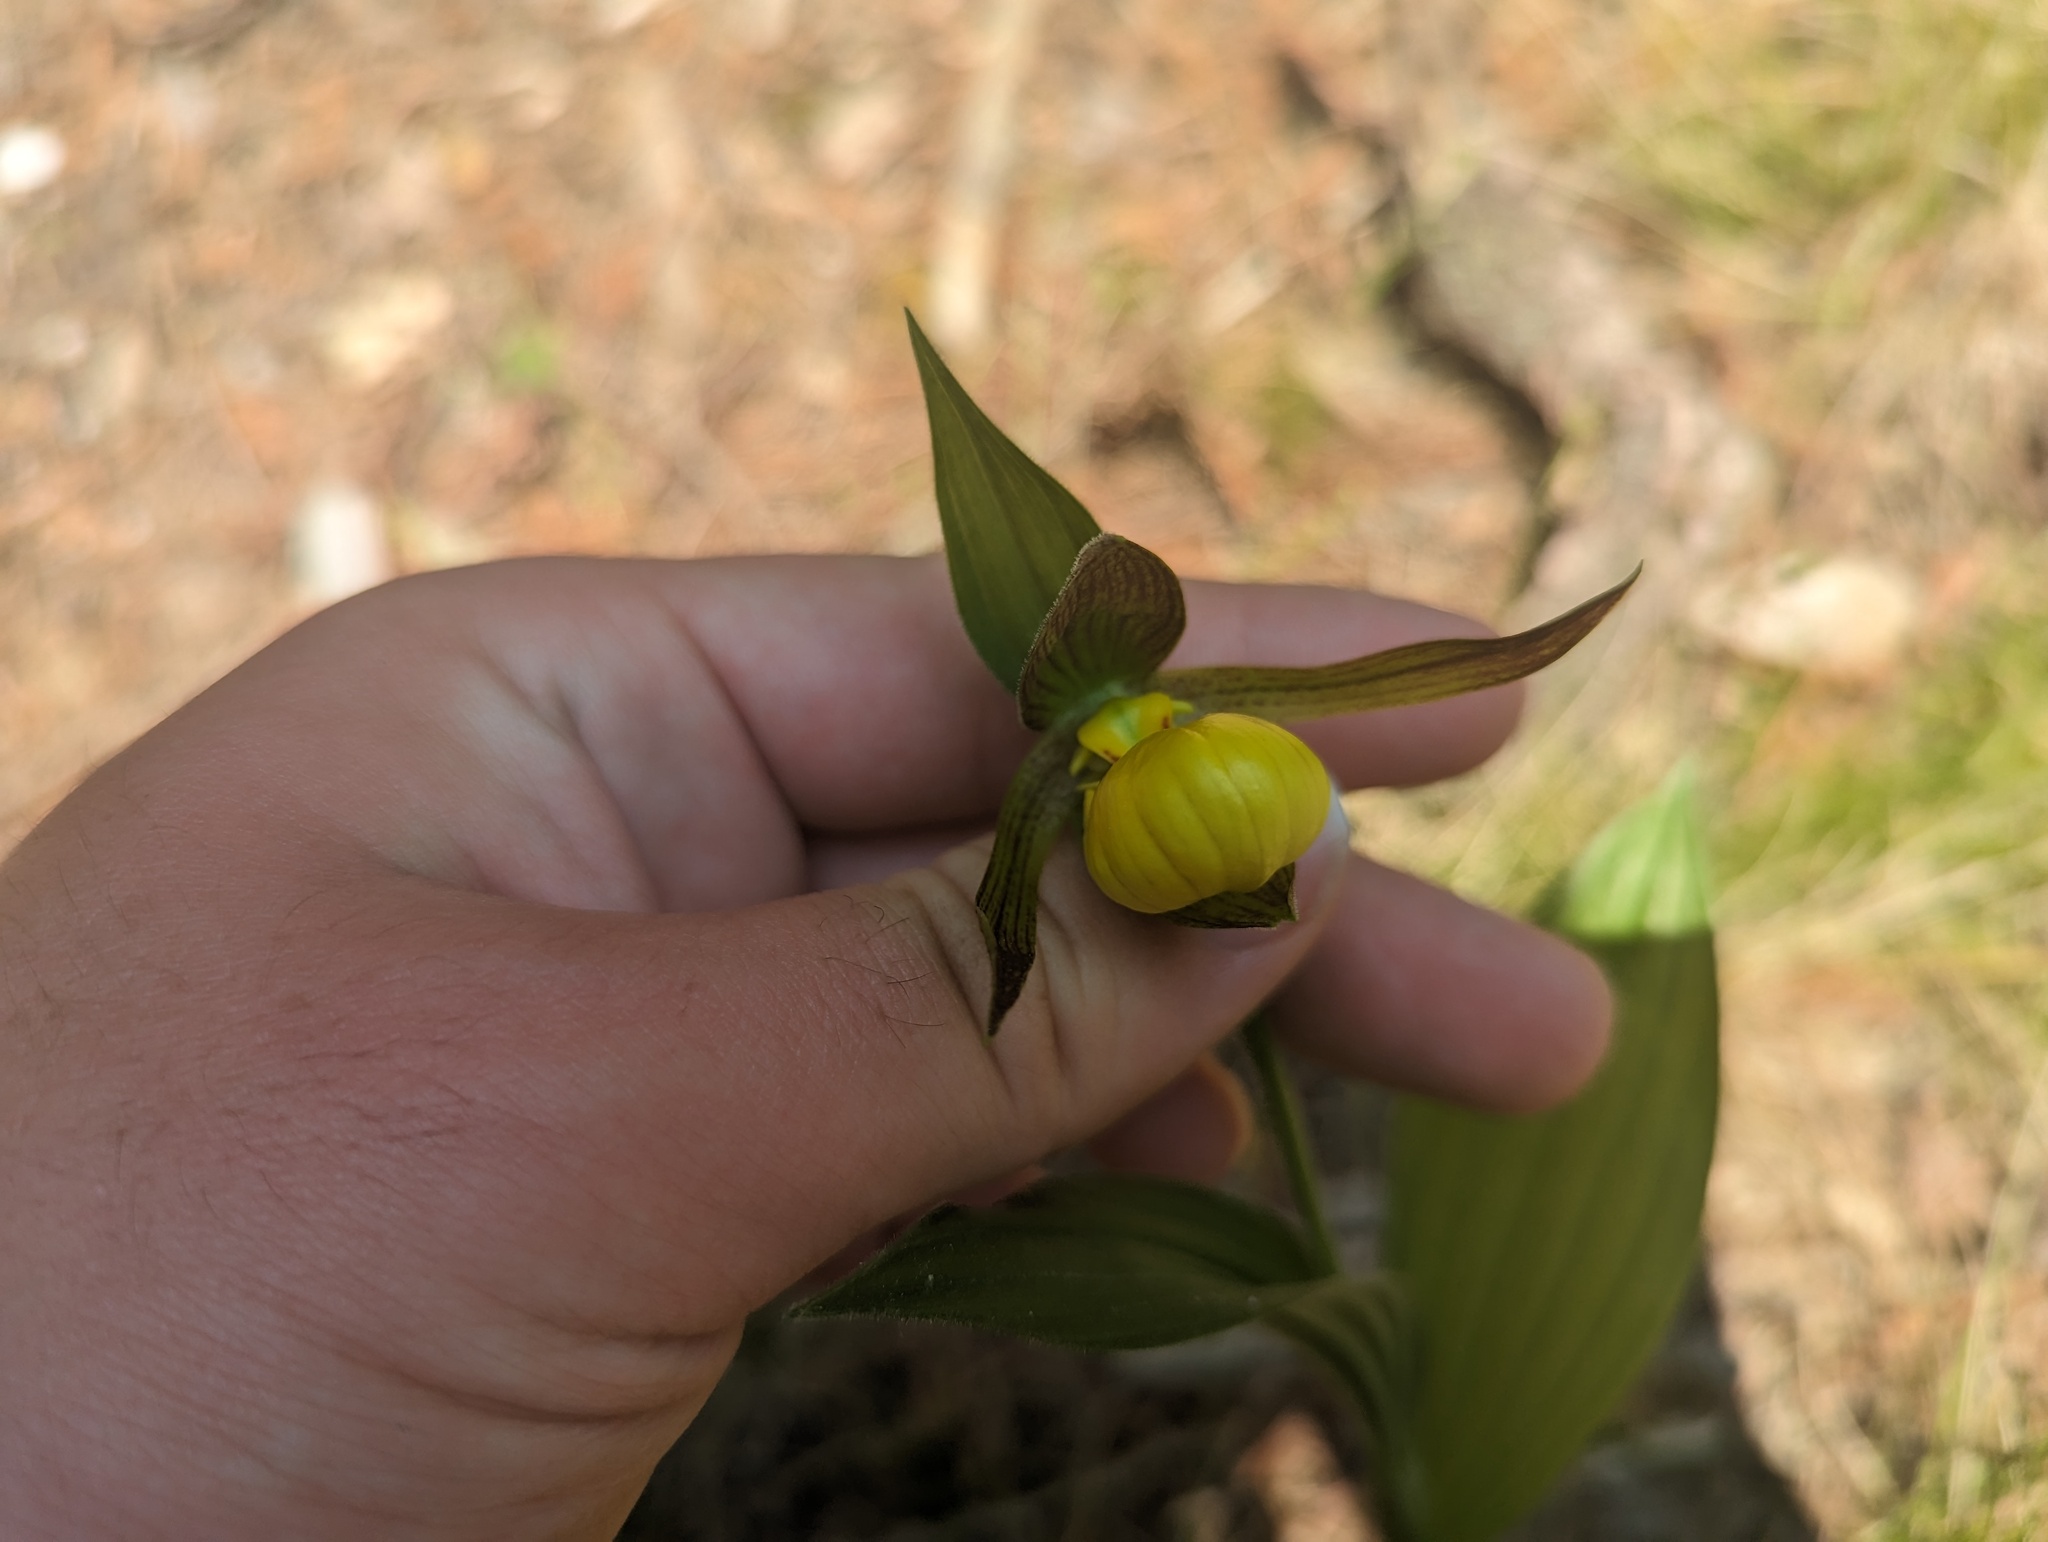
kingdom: Plantae
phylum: Tracheophyta
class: Liliopsida
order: Asparagales
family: Orchidaceae
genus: Cypripedium
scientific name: Cypripedium parviflorum
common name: American yellow lady's-slipper
